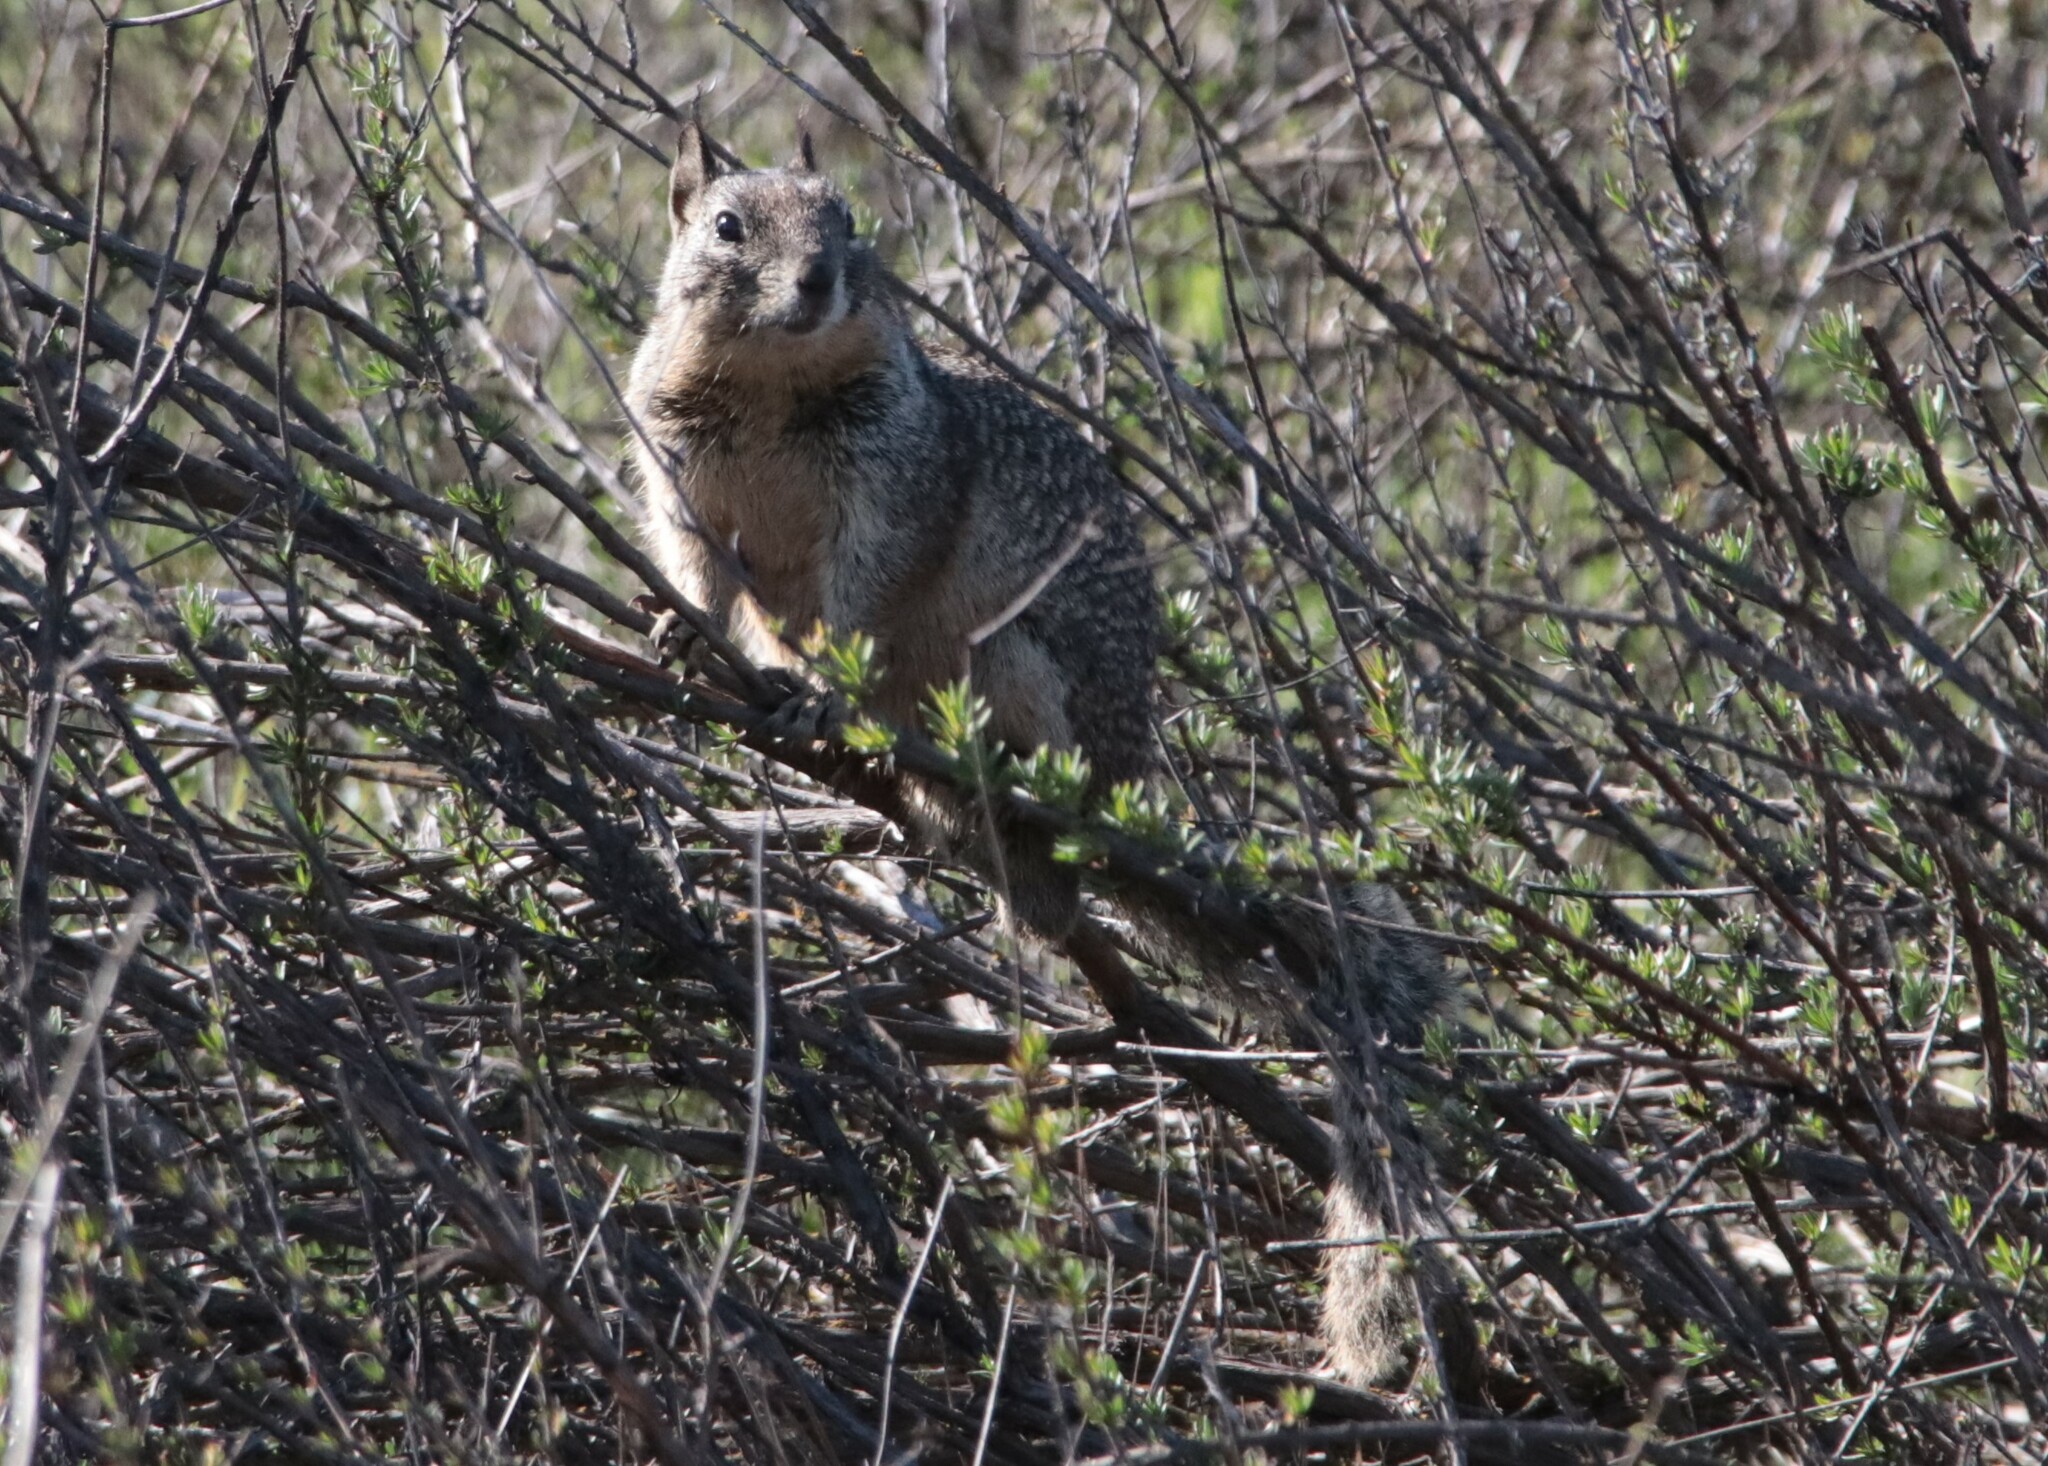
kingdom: Animalia
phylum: Chordata
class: Mammalia
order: Rodentia
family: Sciuridae
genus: Otospermophilus
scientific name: Otospermophilus beecheyi
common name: California ground squirrel
